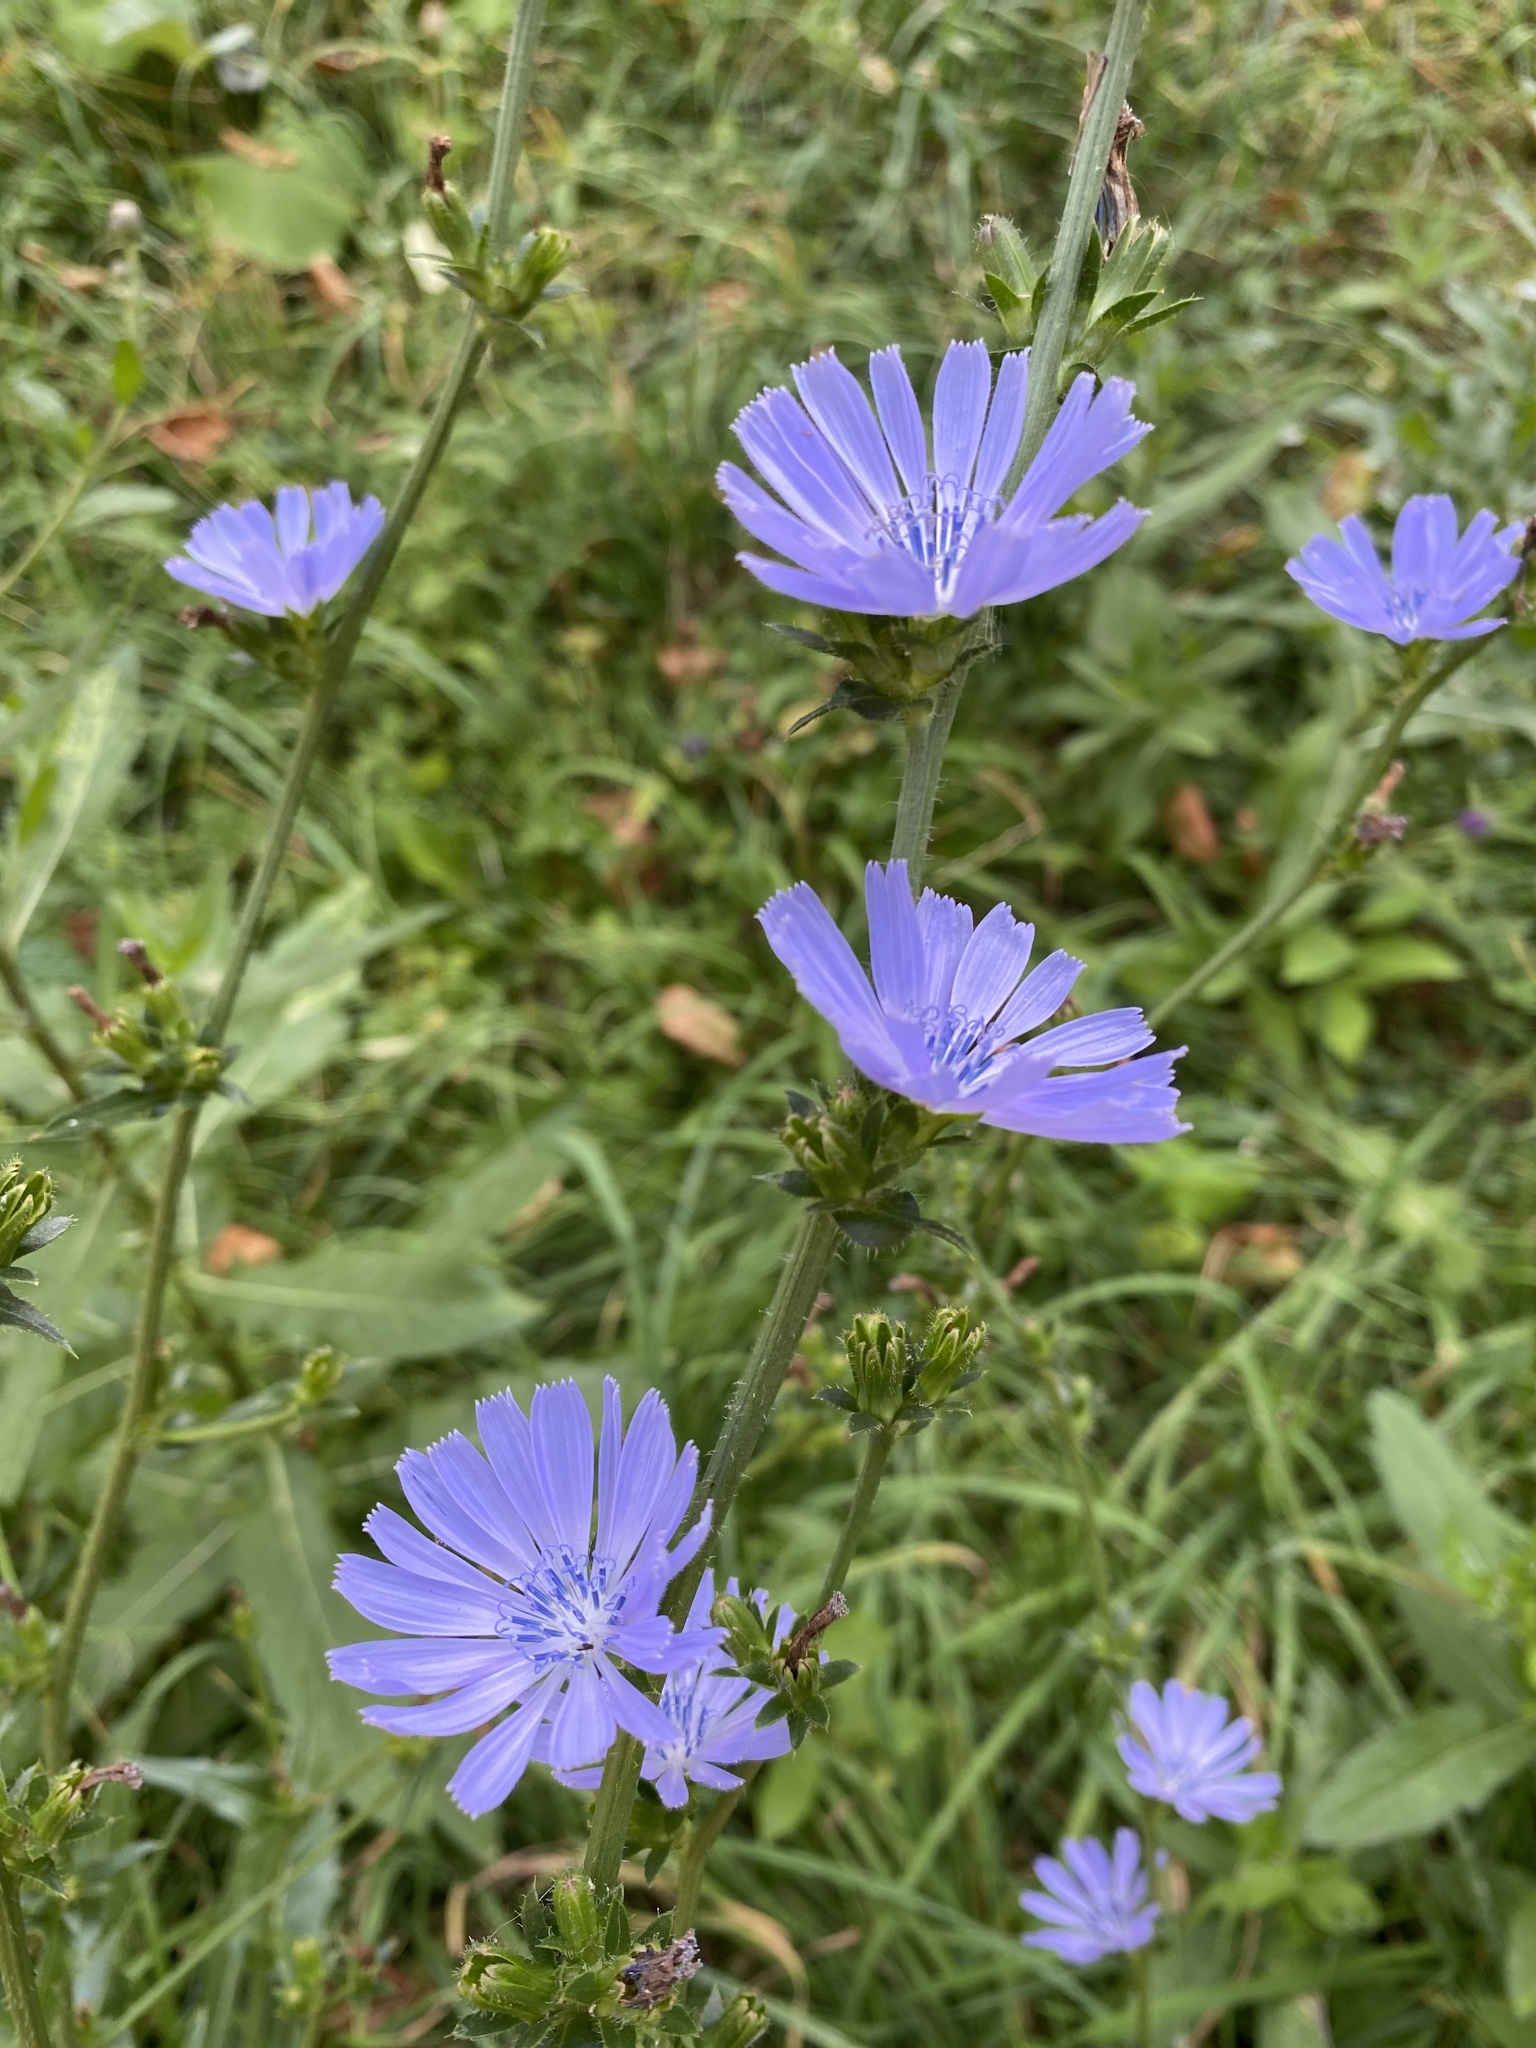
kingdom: Plantae
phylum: Tracheophyta
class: Magnoliopsida
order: Asterales
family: Asteraceae
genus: Cichorium
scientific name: Cichorium intybus
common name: Chicory
